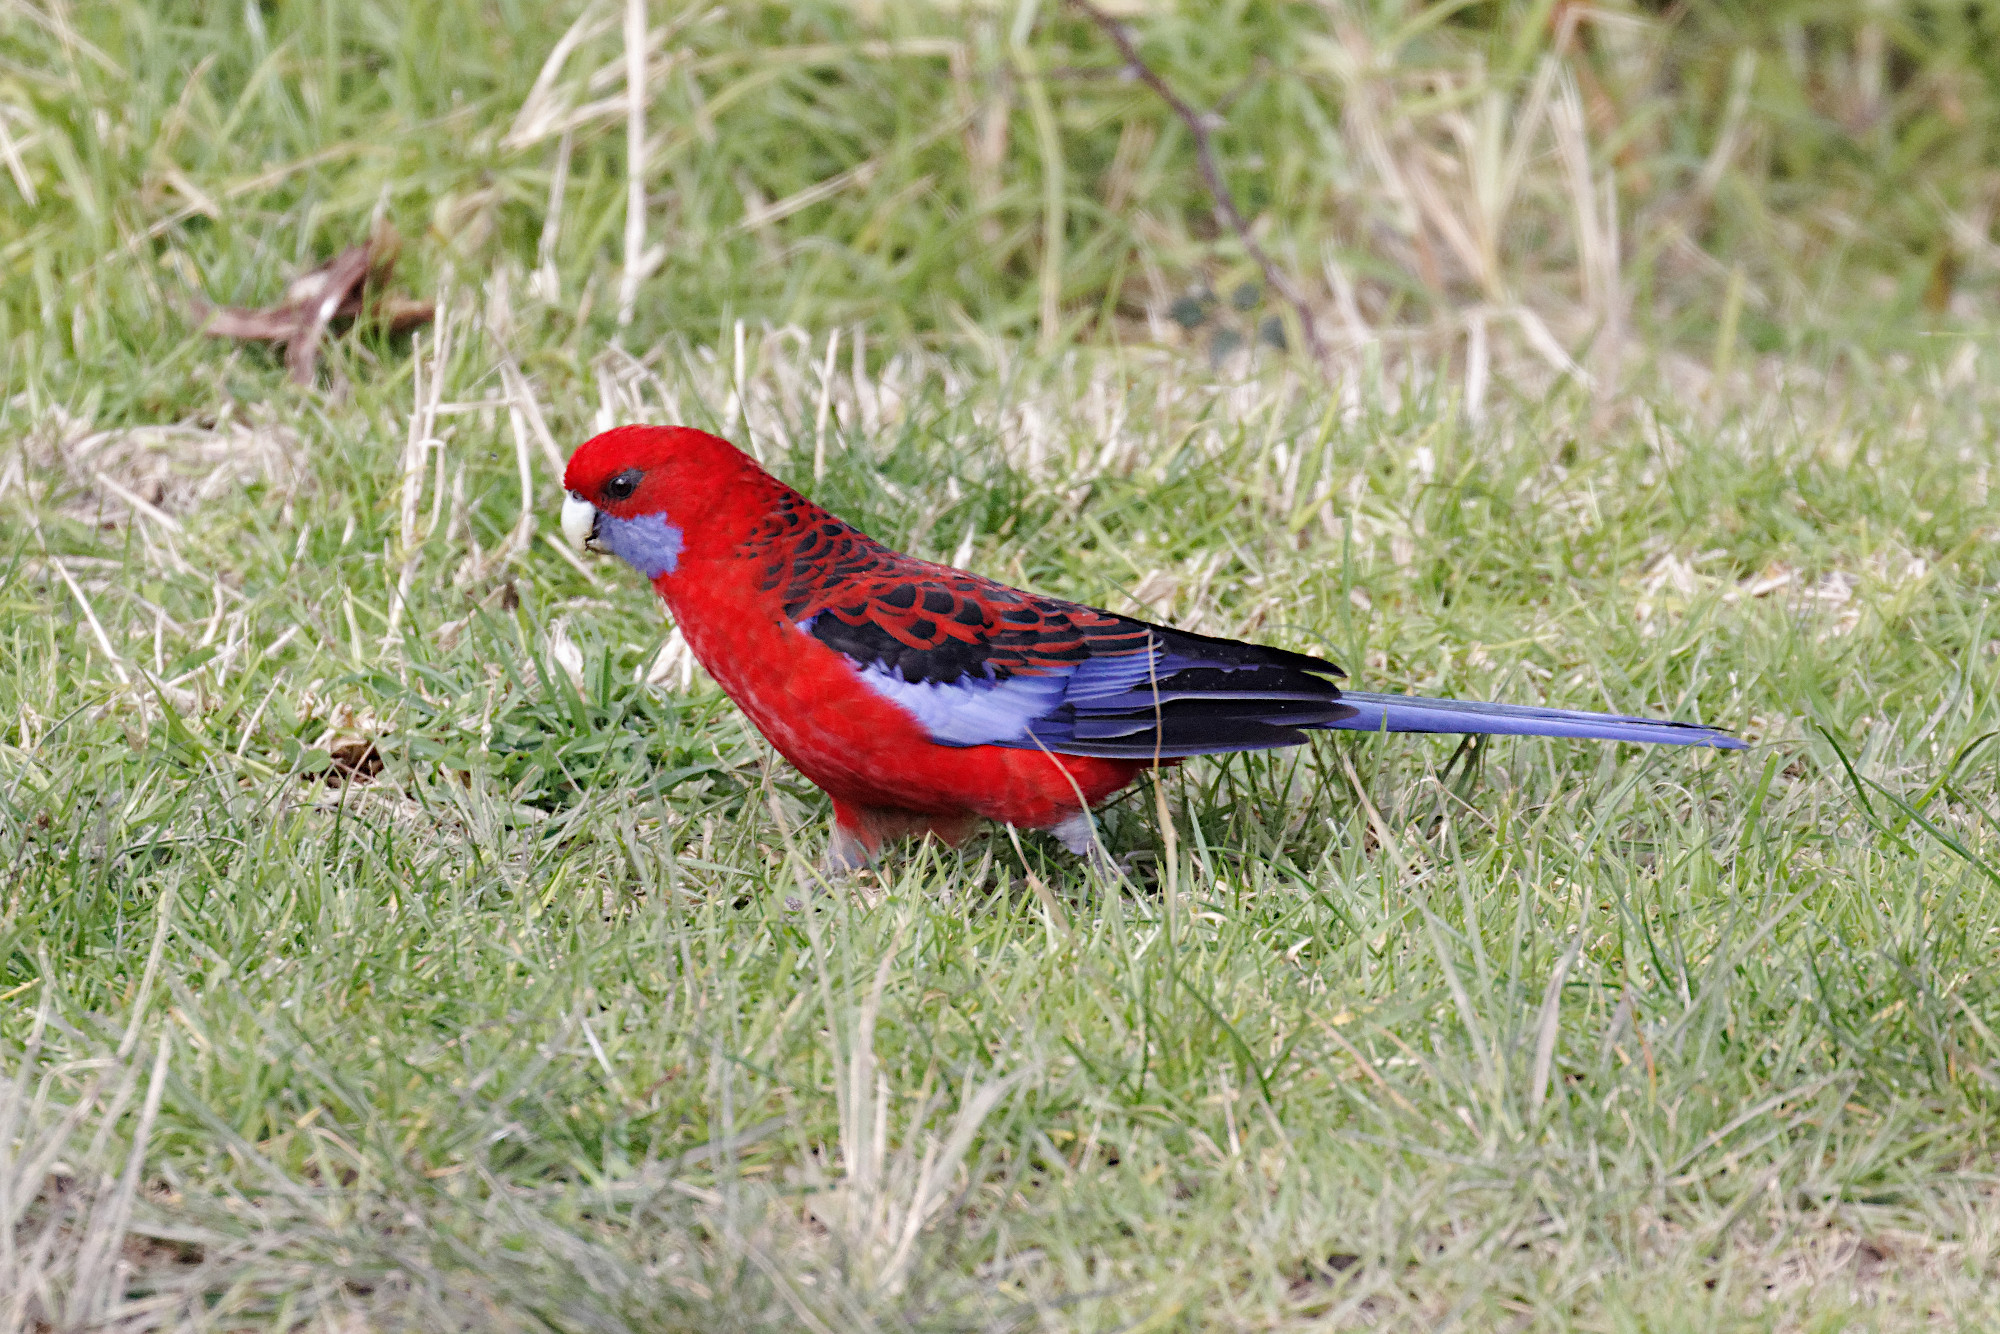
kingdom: Animalia
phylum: Chordata
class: Aves
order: Psittaciformes
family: Psittacidae
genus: Platycercus
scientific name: Platycercus elegans
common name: Crimson rosella
